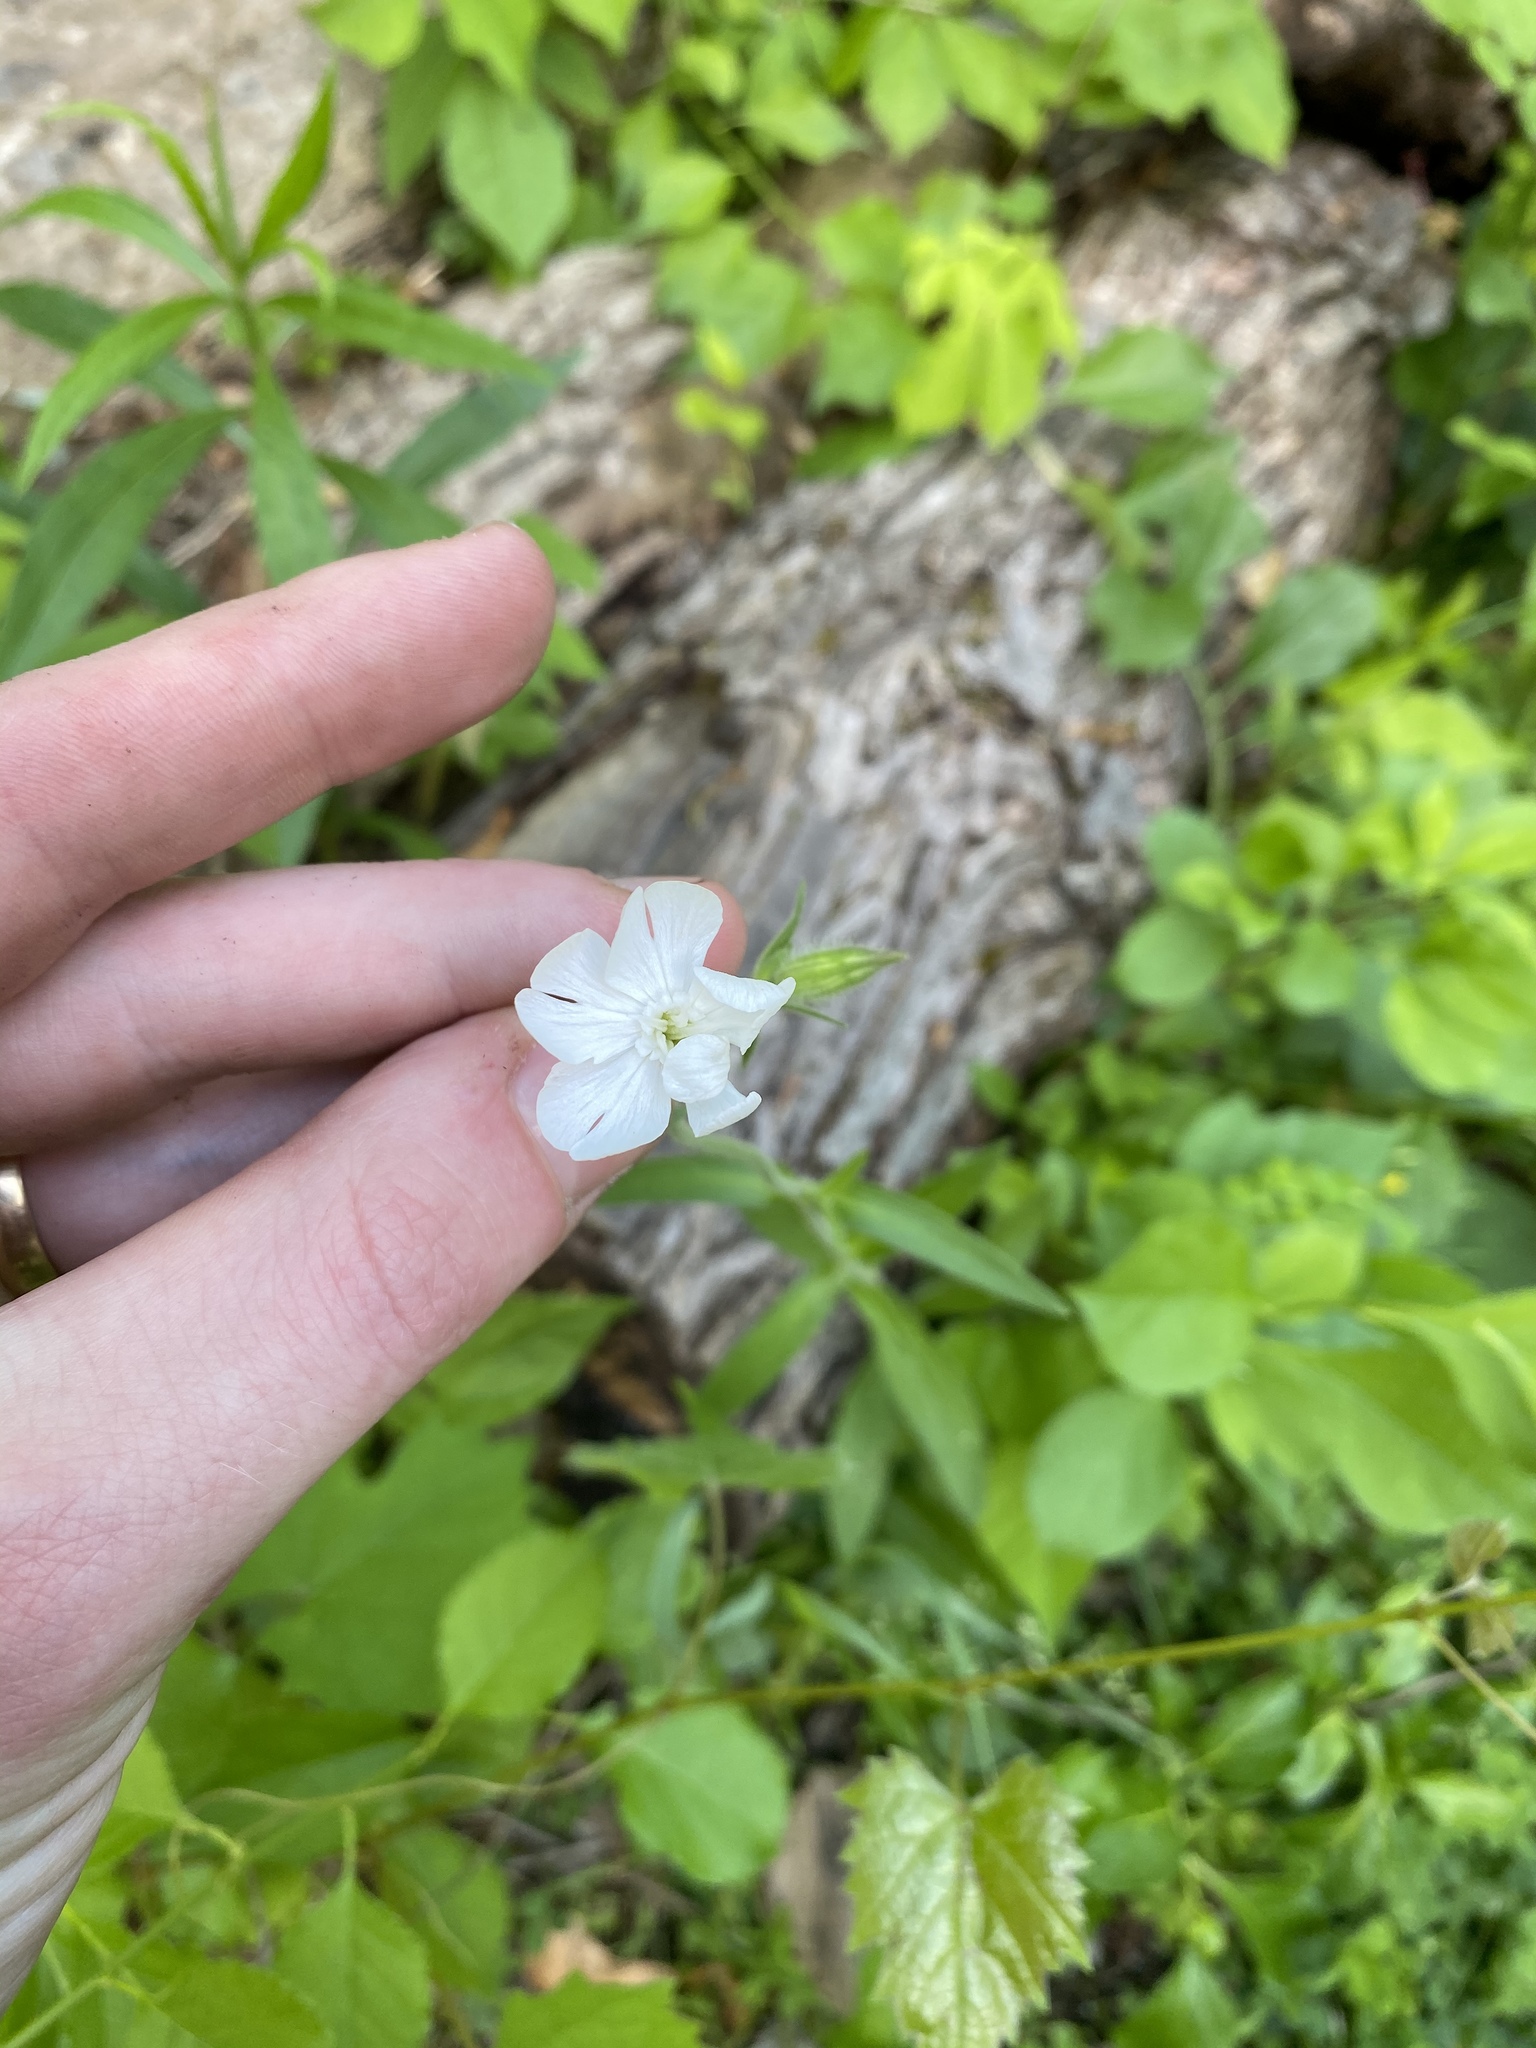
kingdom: Plantae
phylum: Tracheophyta
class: Magnoliopsida
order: Caryophyllales
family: Caryophyllaceae
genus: Silene
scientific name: Silene latifolia
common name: White campion
